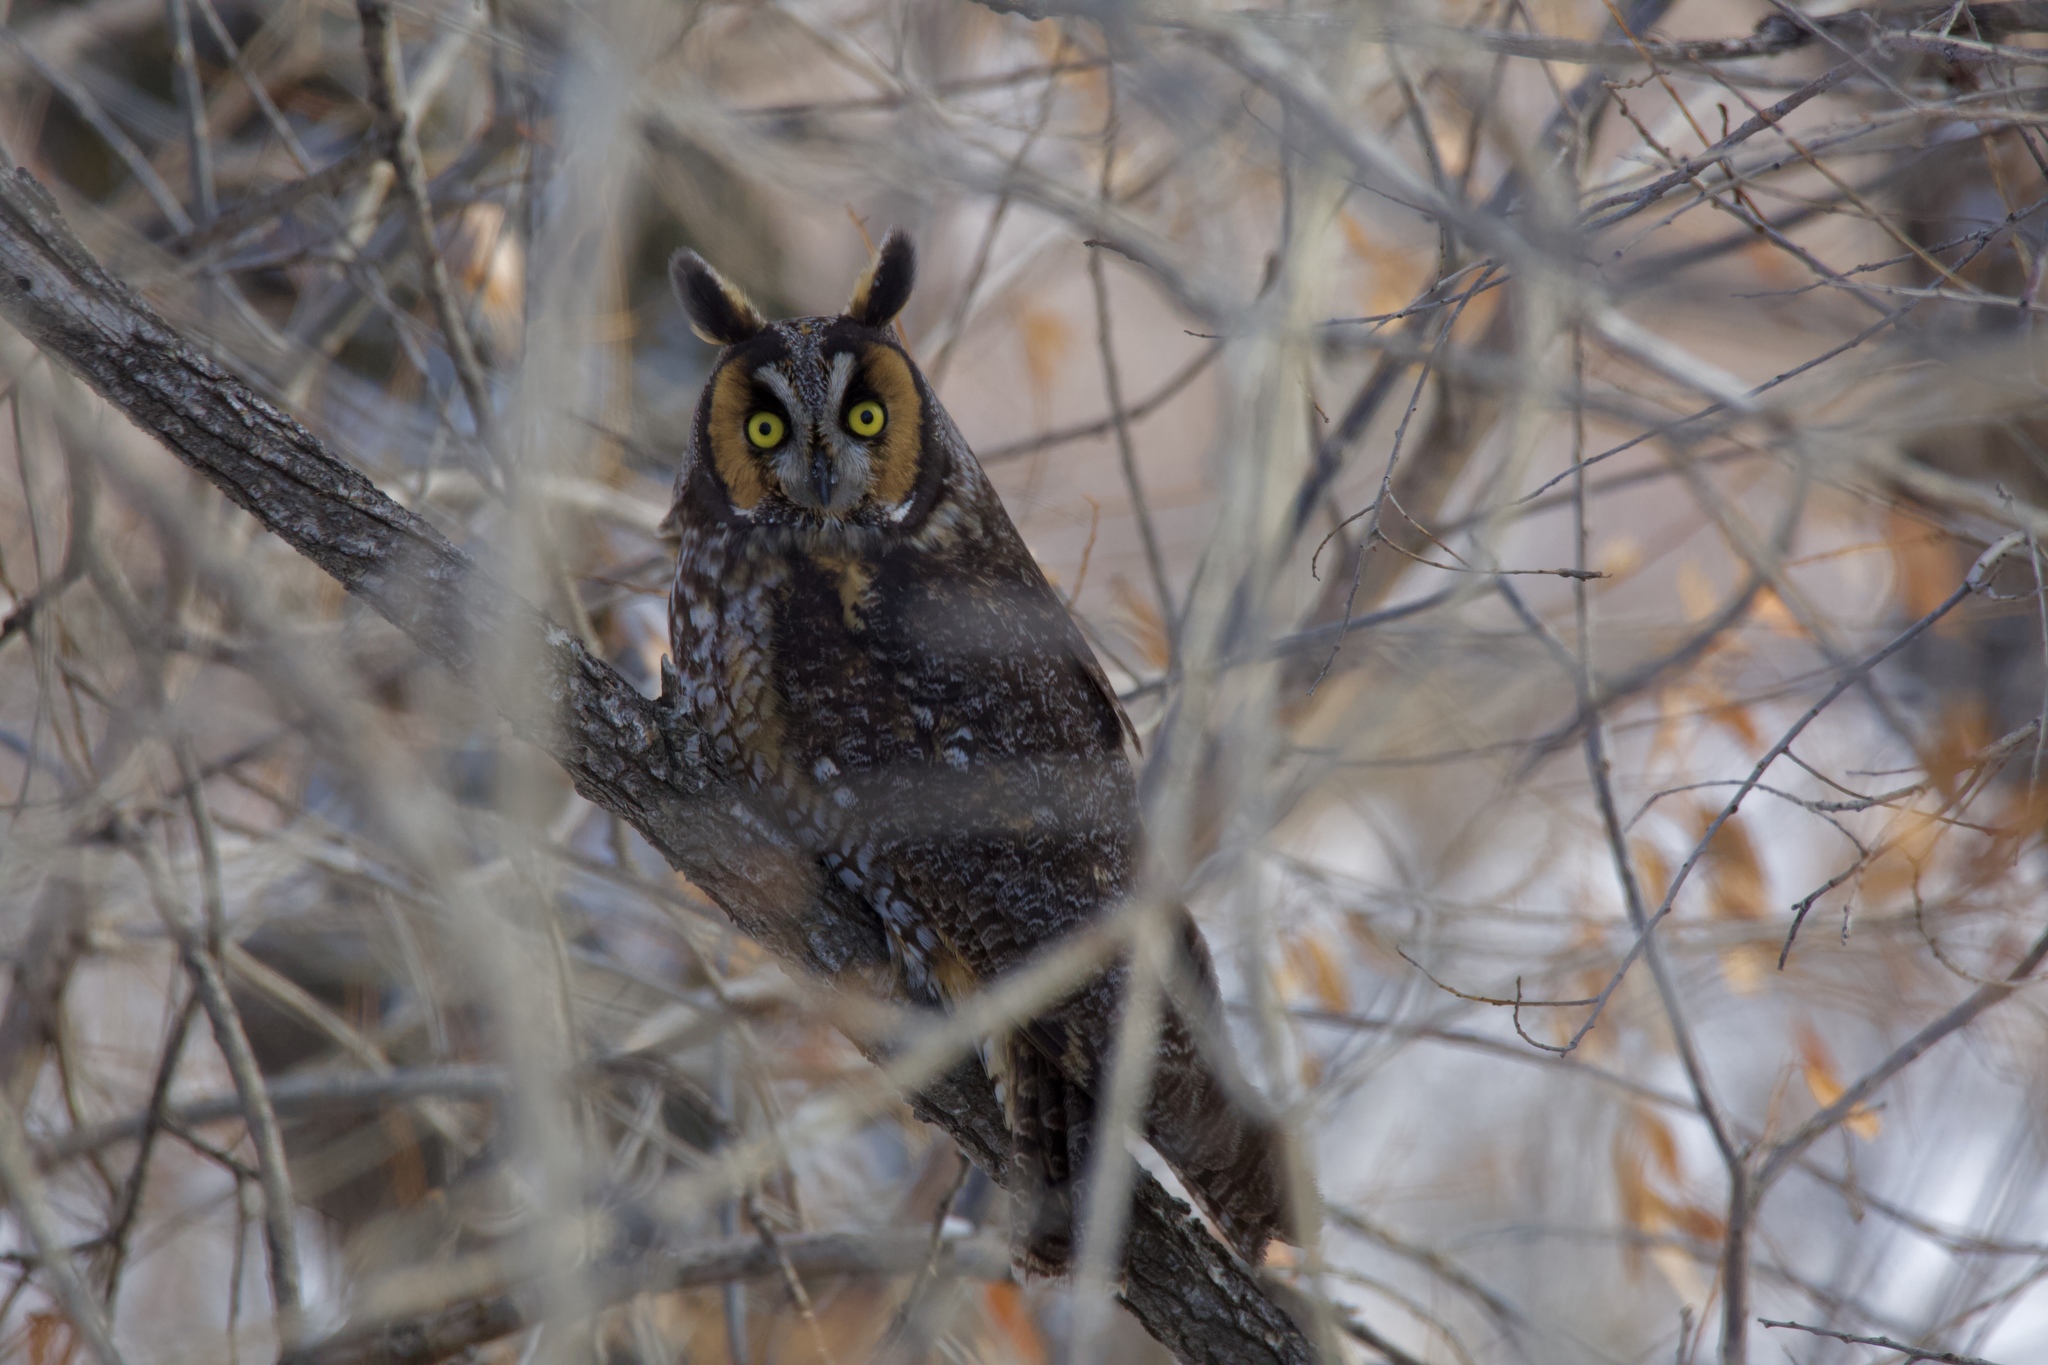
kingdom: Animalia
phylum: Chordata
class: Aves
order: Strigiformes
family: Strigidae
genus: Asio
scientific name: Asio otus
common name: Long-eared owl
